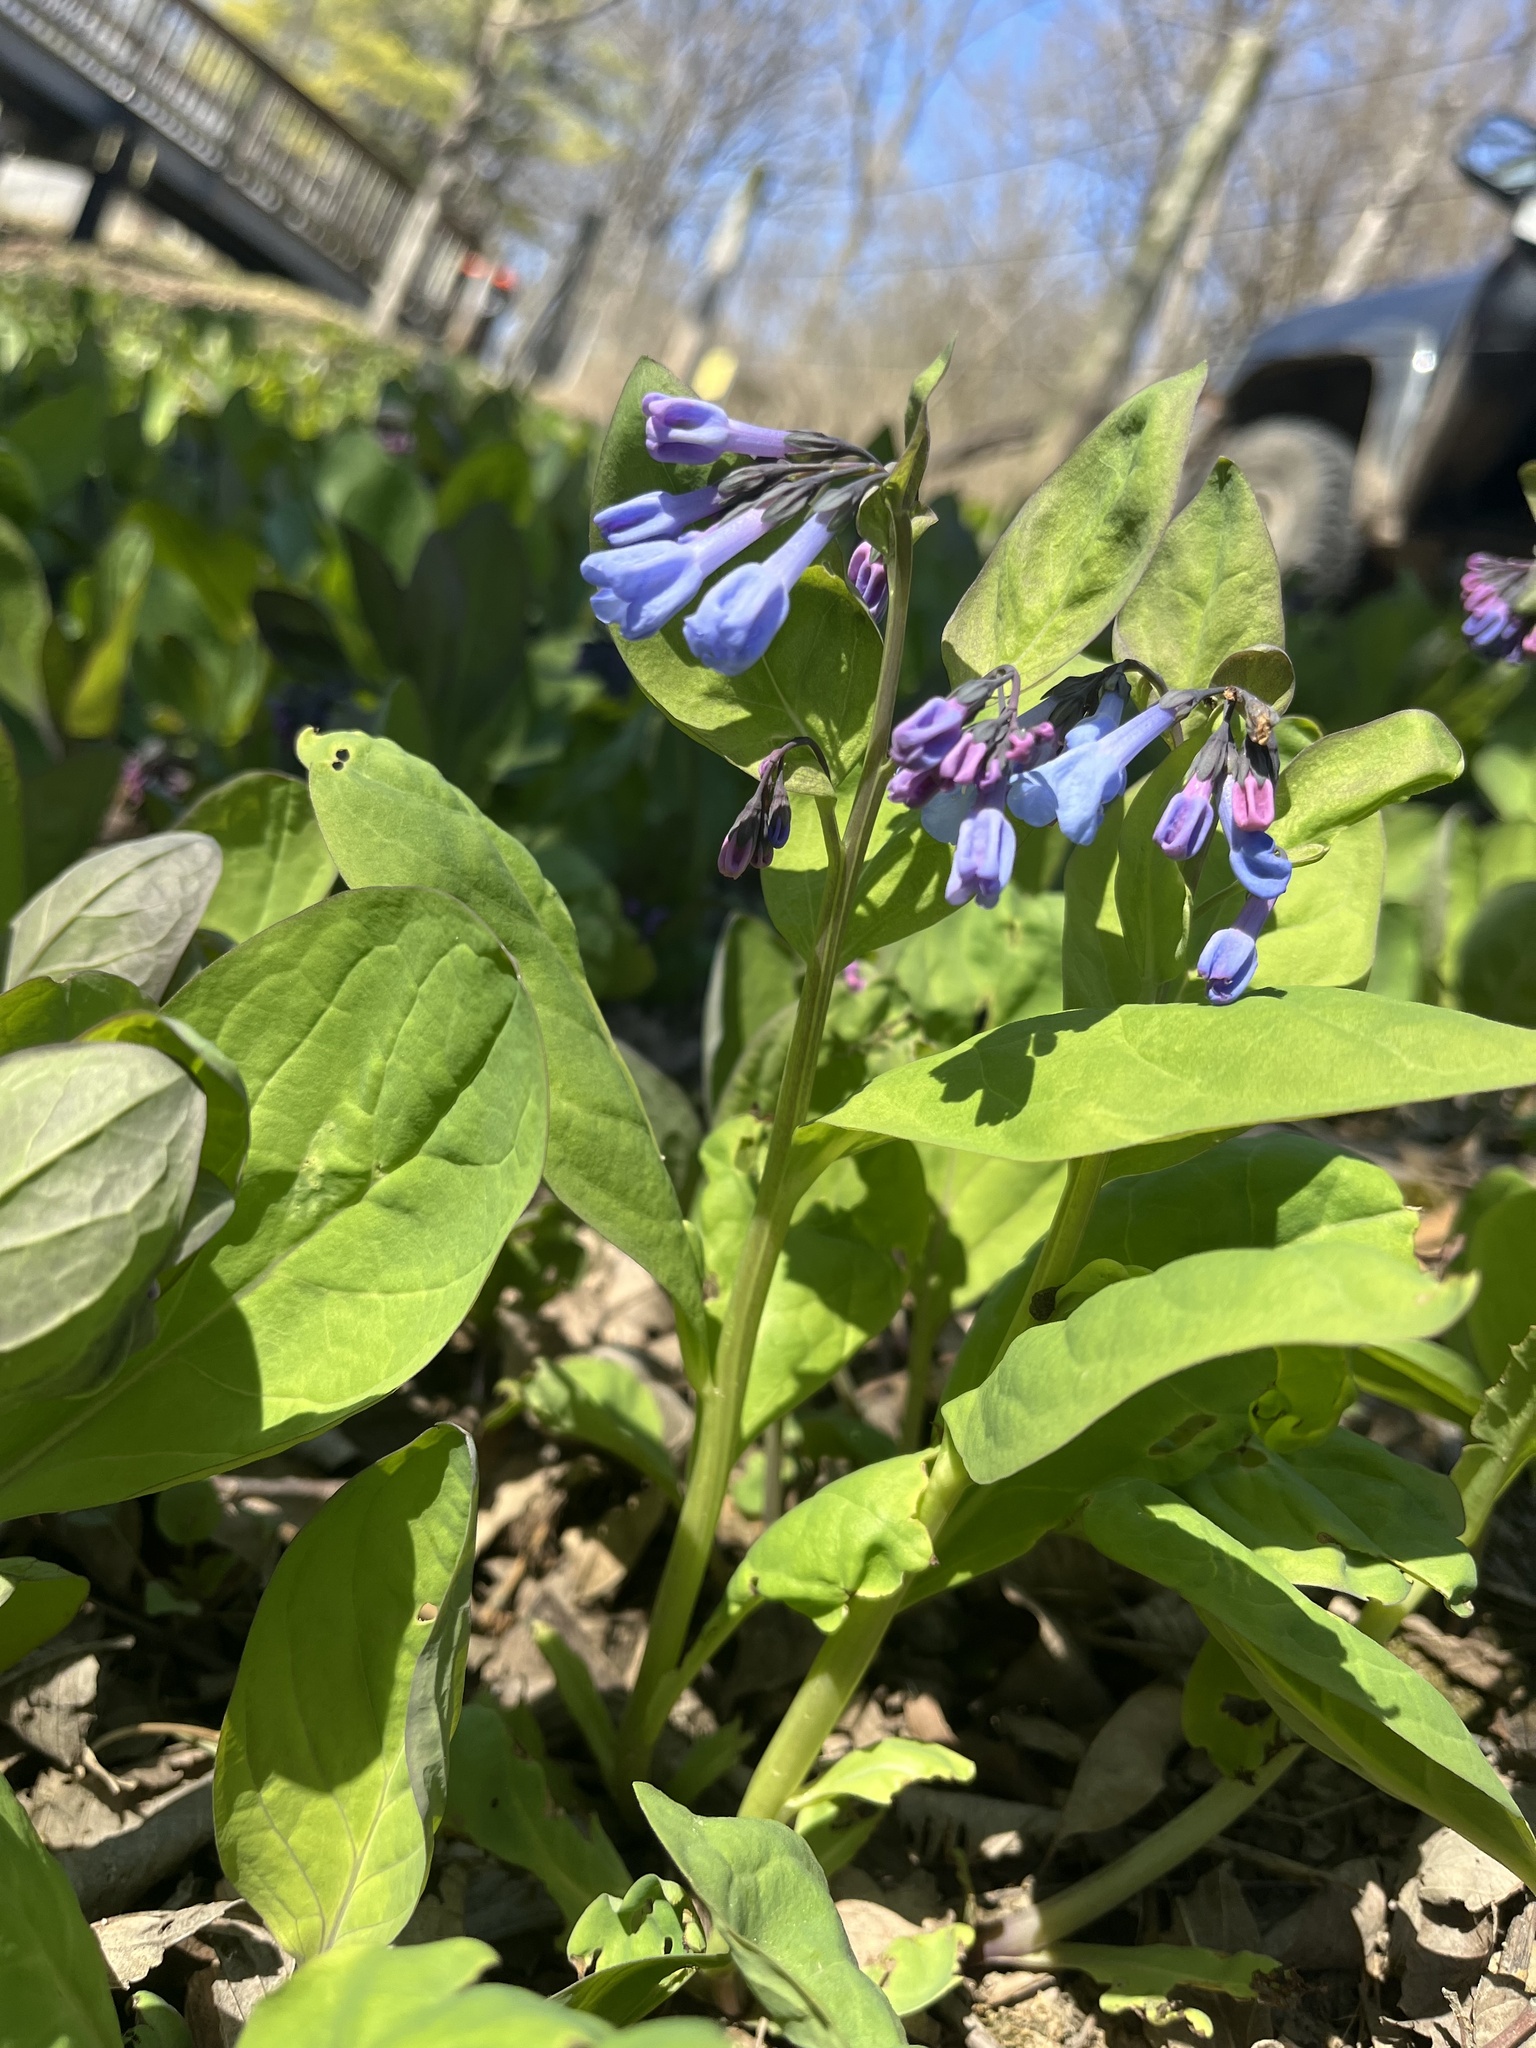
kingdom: Plantae
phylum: Tracheophyta
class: Magnoliopsida
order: Boraginales
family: Boraginaceae
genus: Mertensia
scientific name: Mertensia virginica
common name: Virginia bluebells
